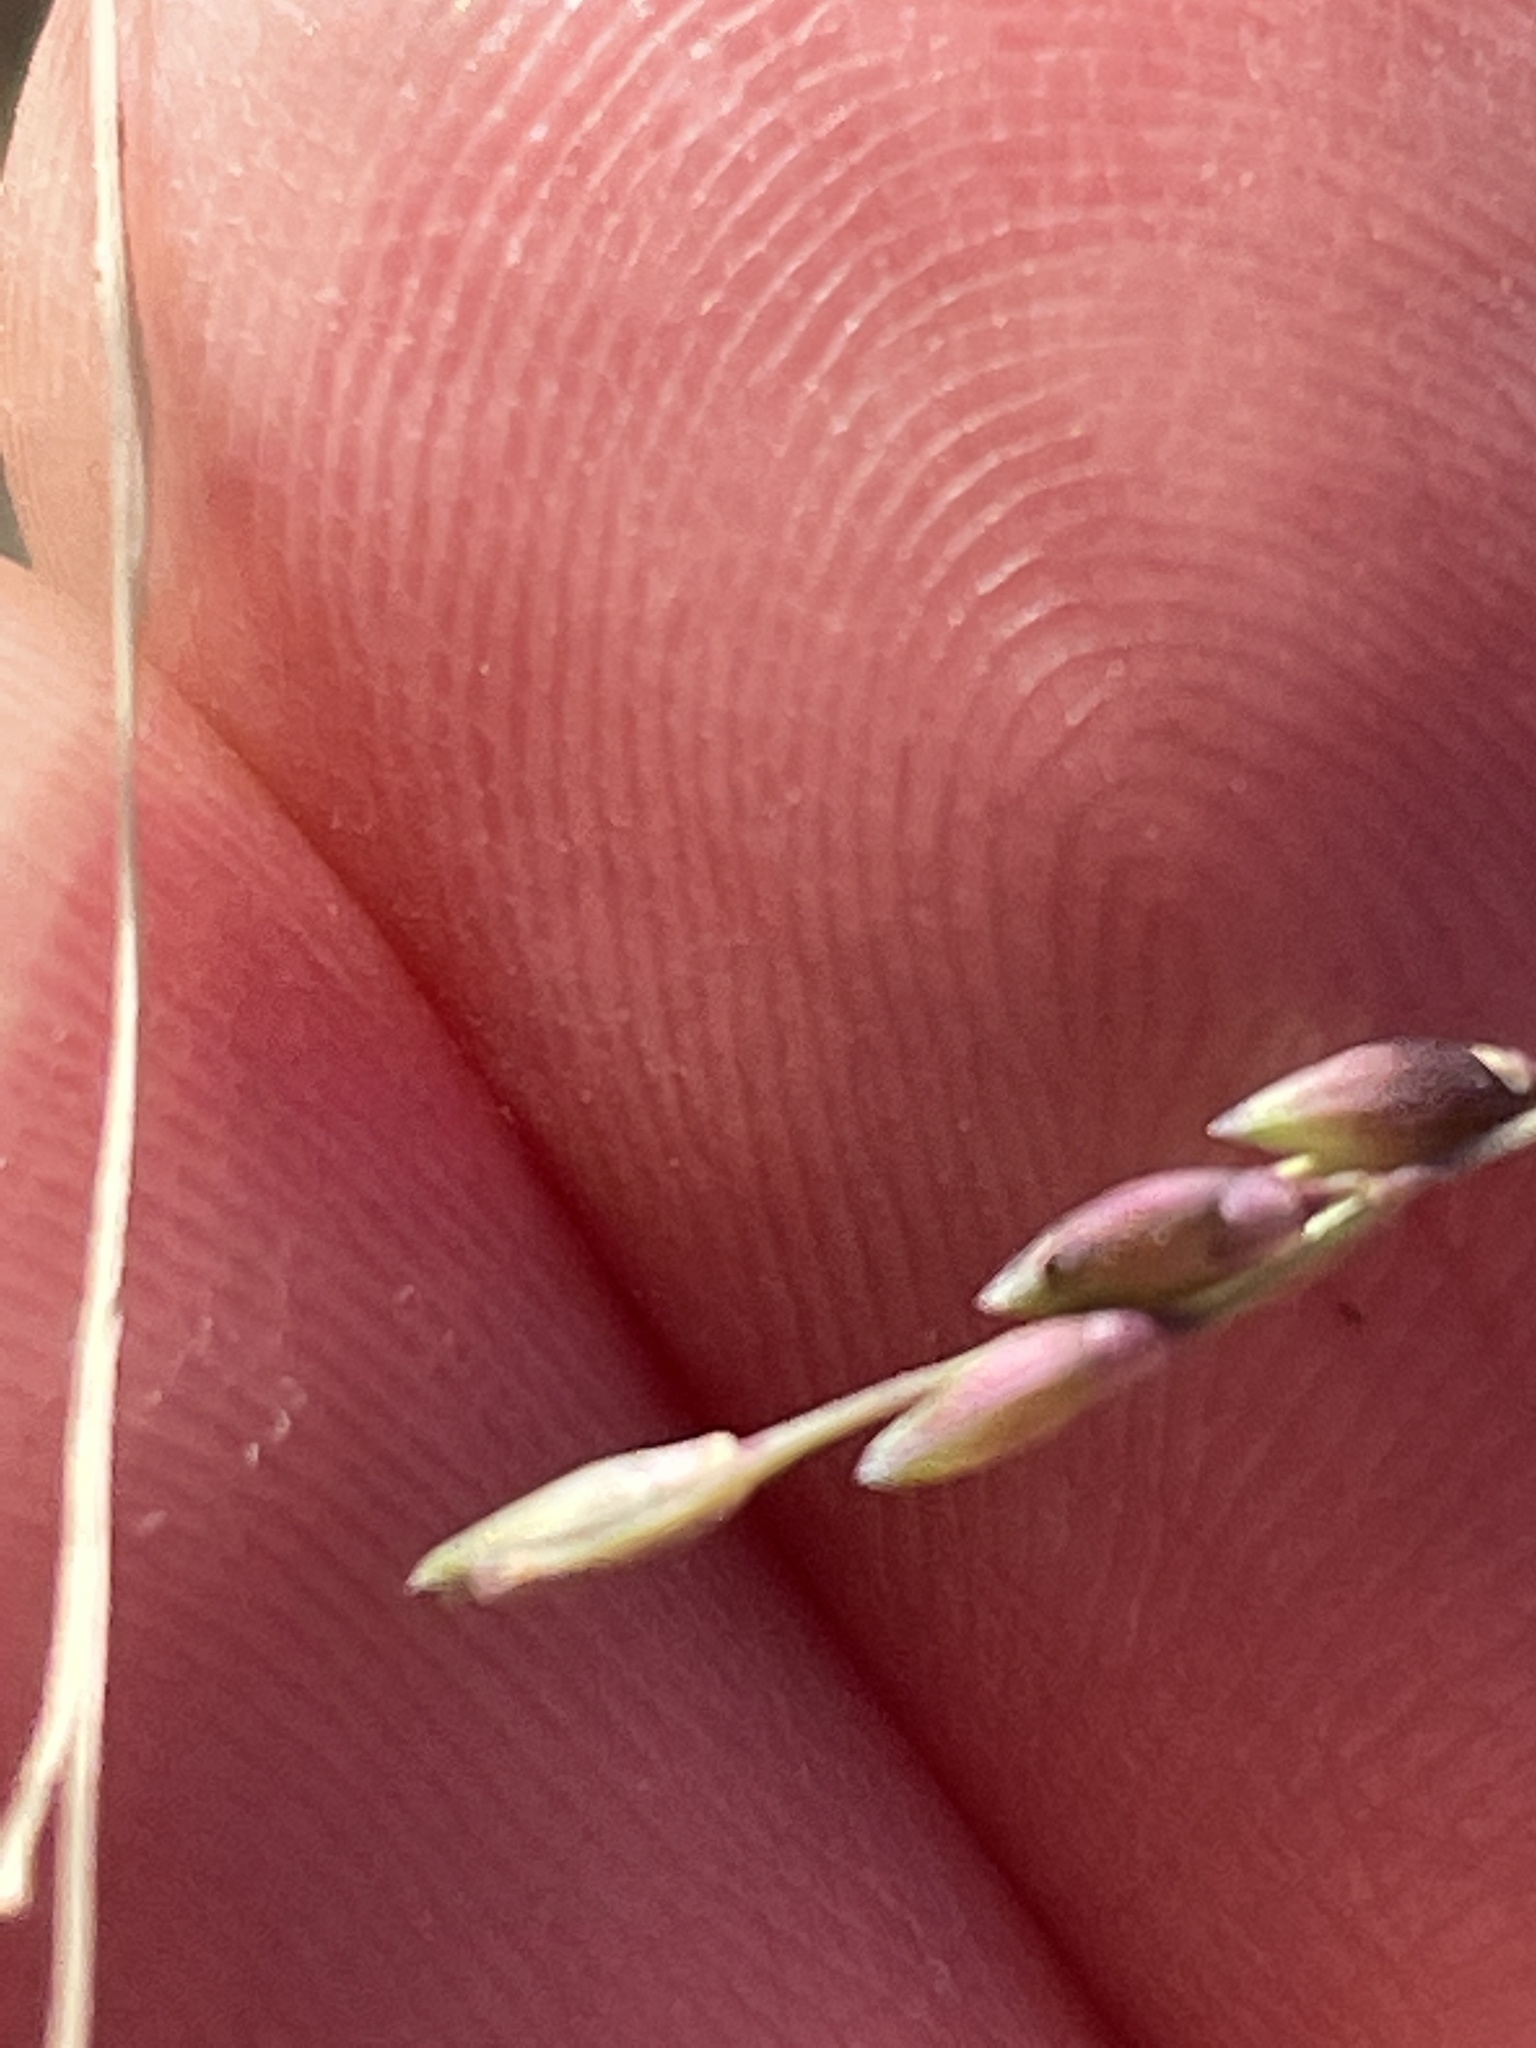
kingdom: Plantae
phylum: Tracheophyta
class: Liliopsida
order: Poales
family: Poaceae
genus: Panicum
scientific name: Panicum dichotomiflorum
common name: Autumn millet
